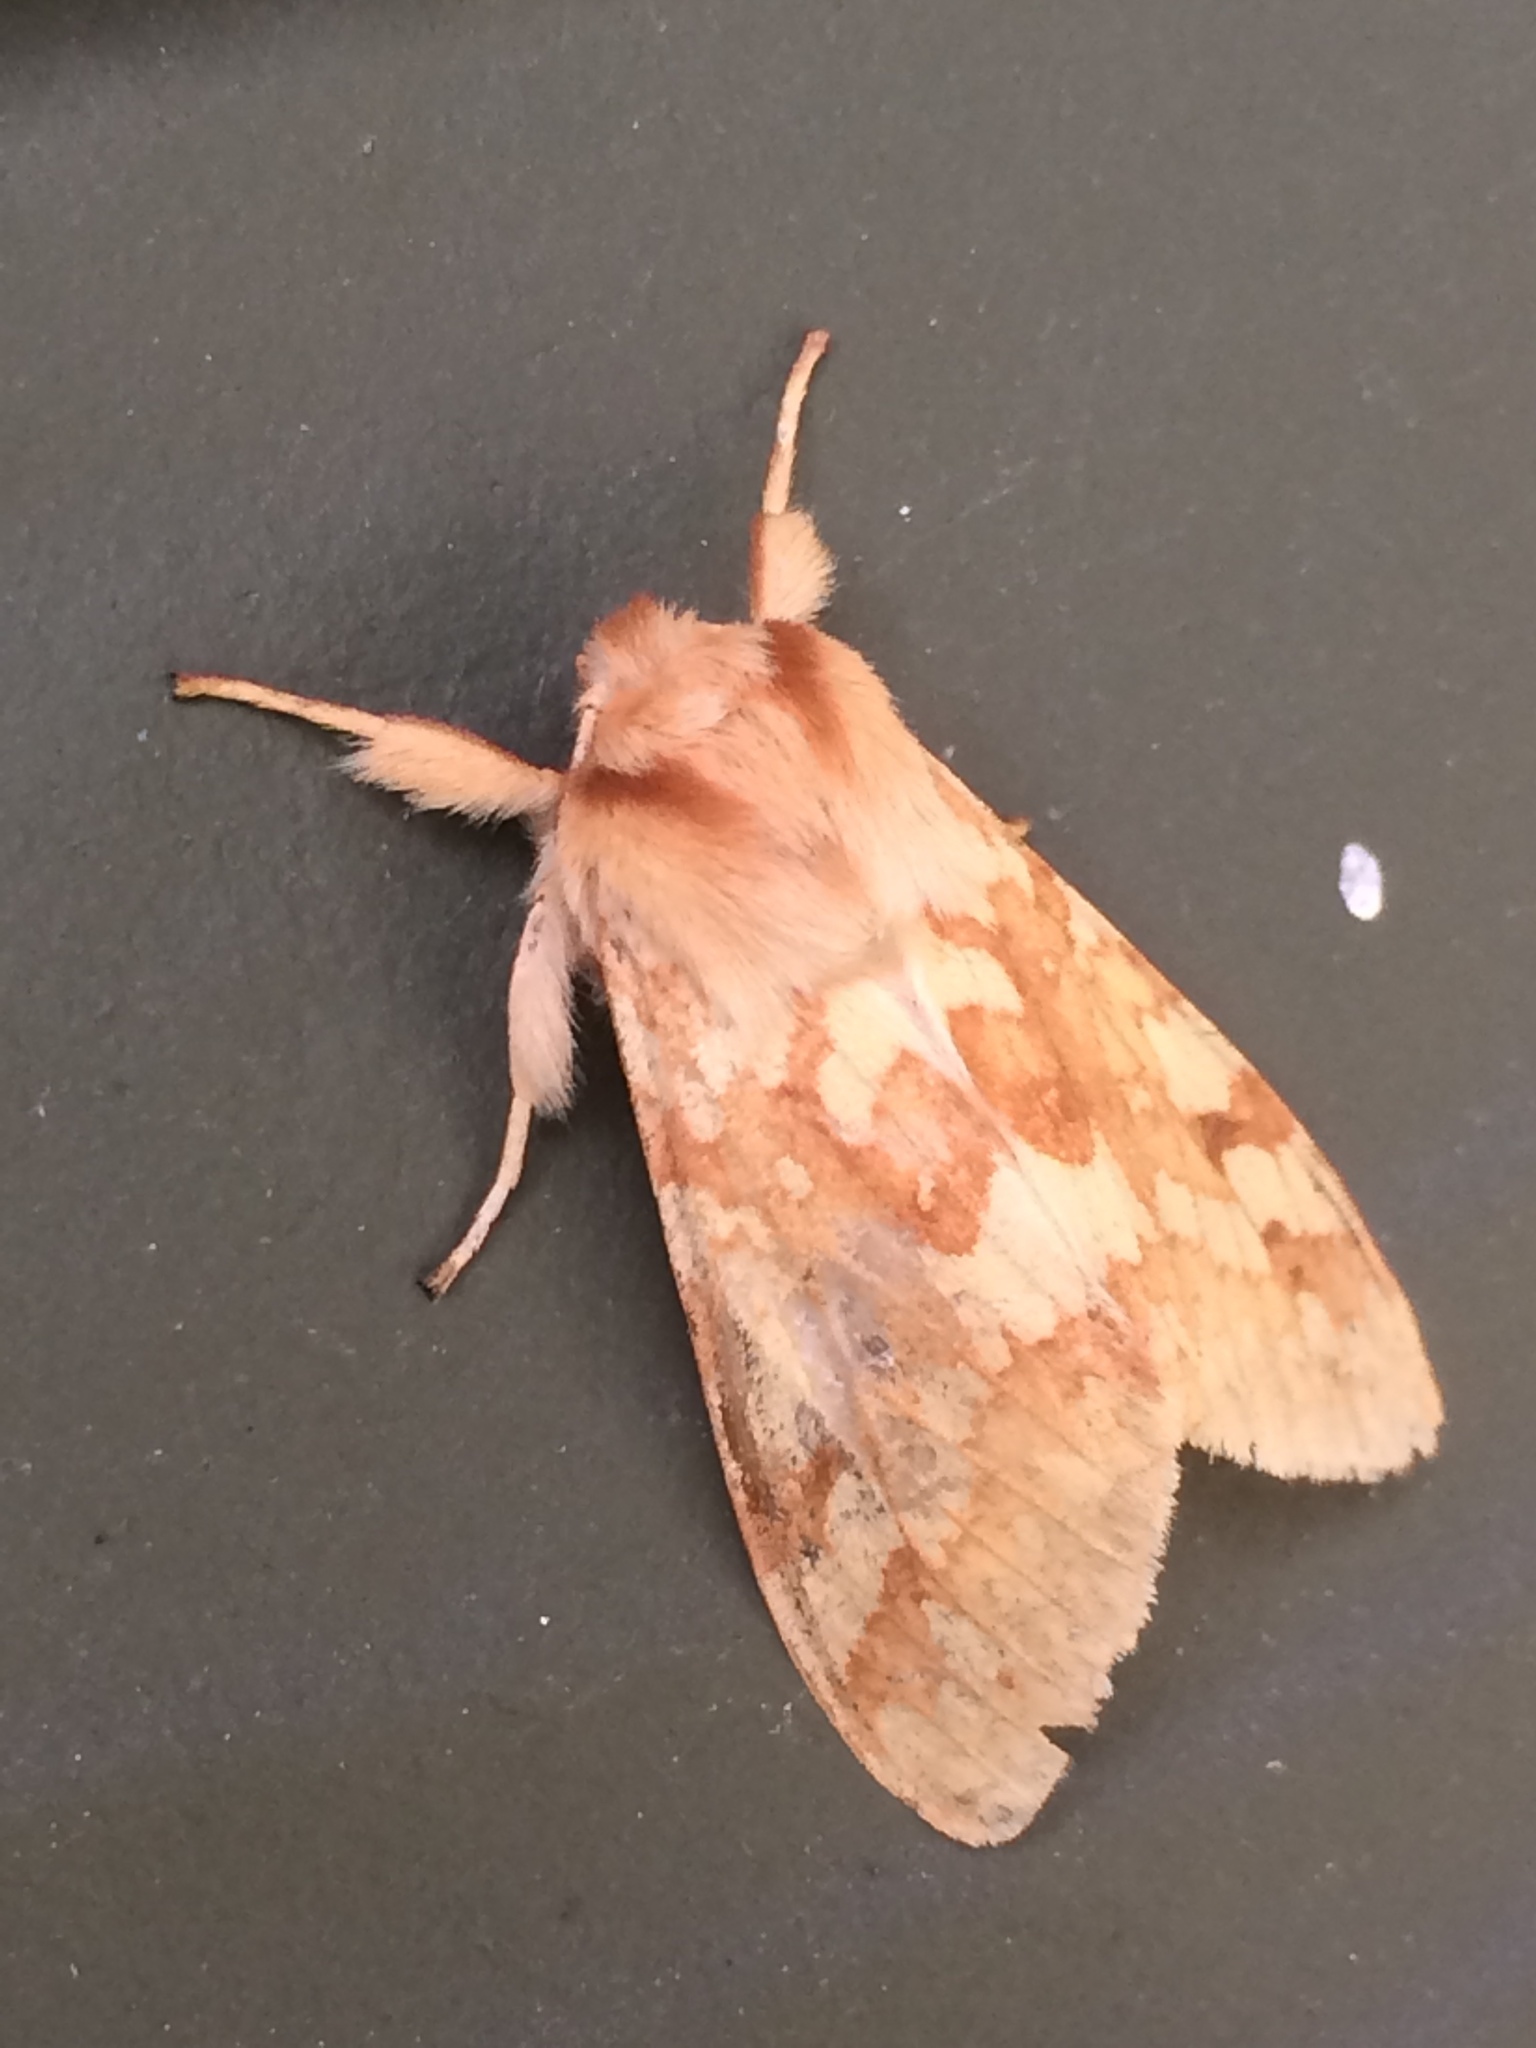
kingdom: Animalia
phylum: Arthropoda
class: Insecta
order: Lepidoptera
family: Erebidae
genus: Lophocampa
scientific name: Lophocampa maculata
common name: Spotted tussock moth
